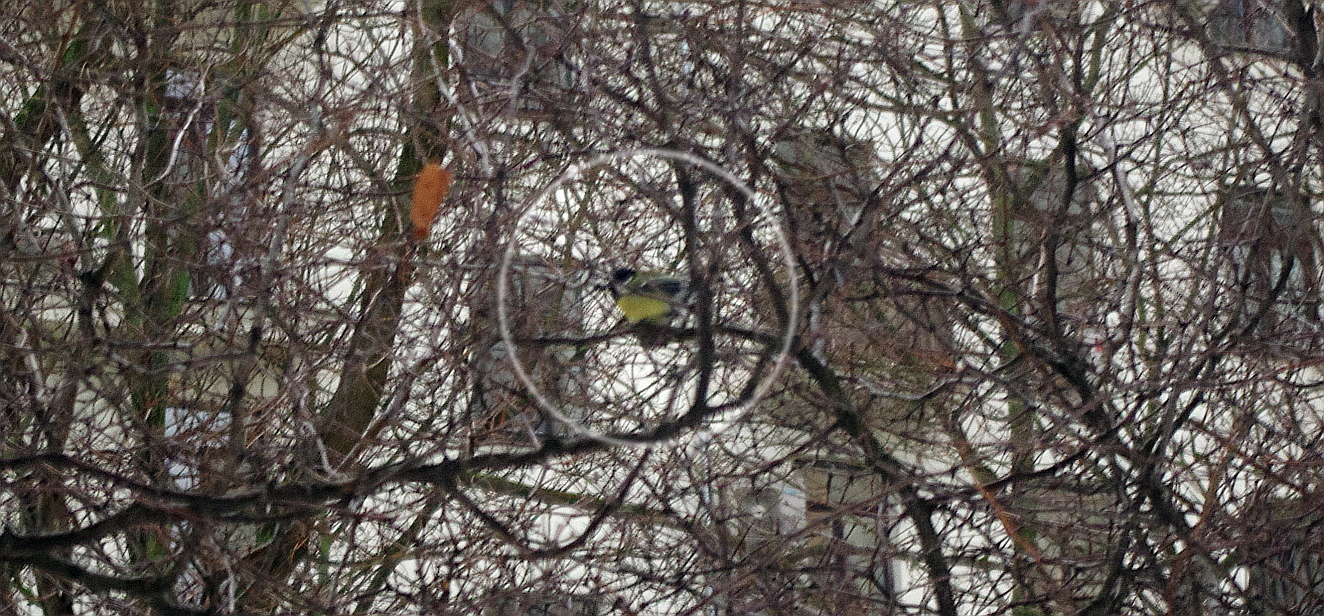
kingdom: Animalia
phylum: Chordata
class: Aves
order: Passeriformes
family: Paridae
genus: Parus
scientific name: Parus major
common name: Great tit
